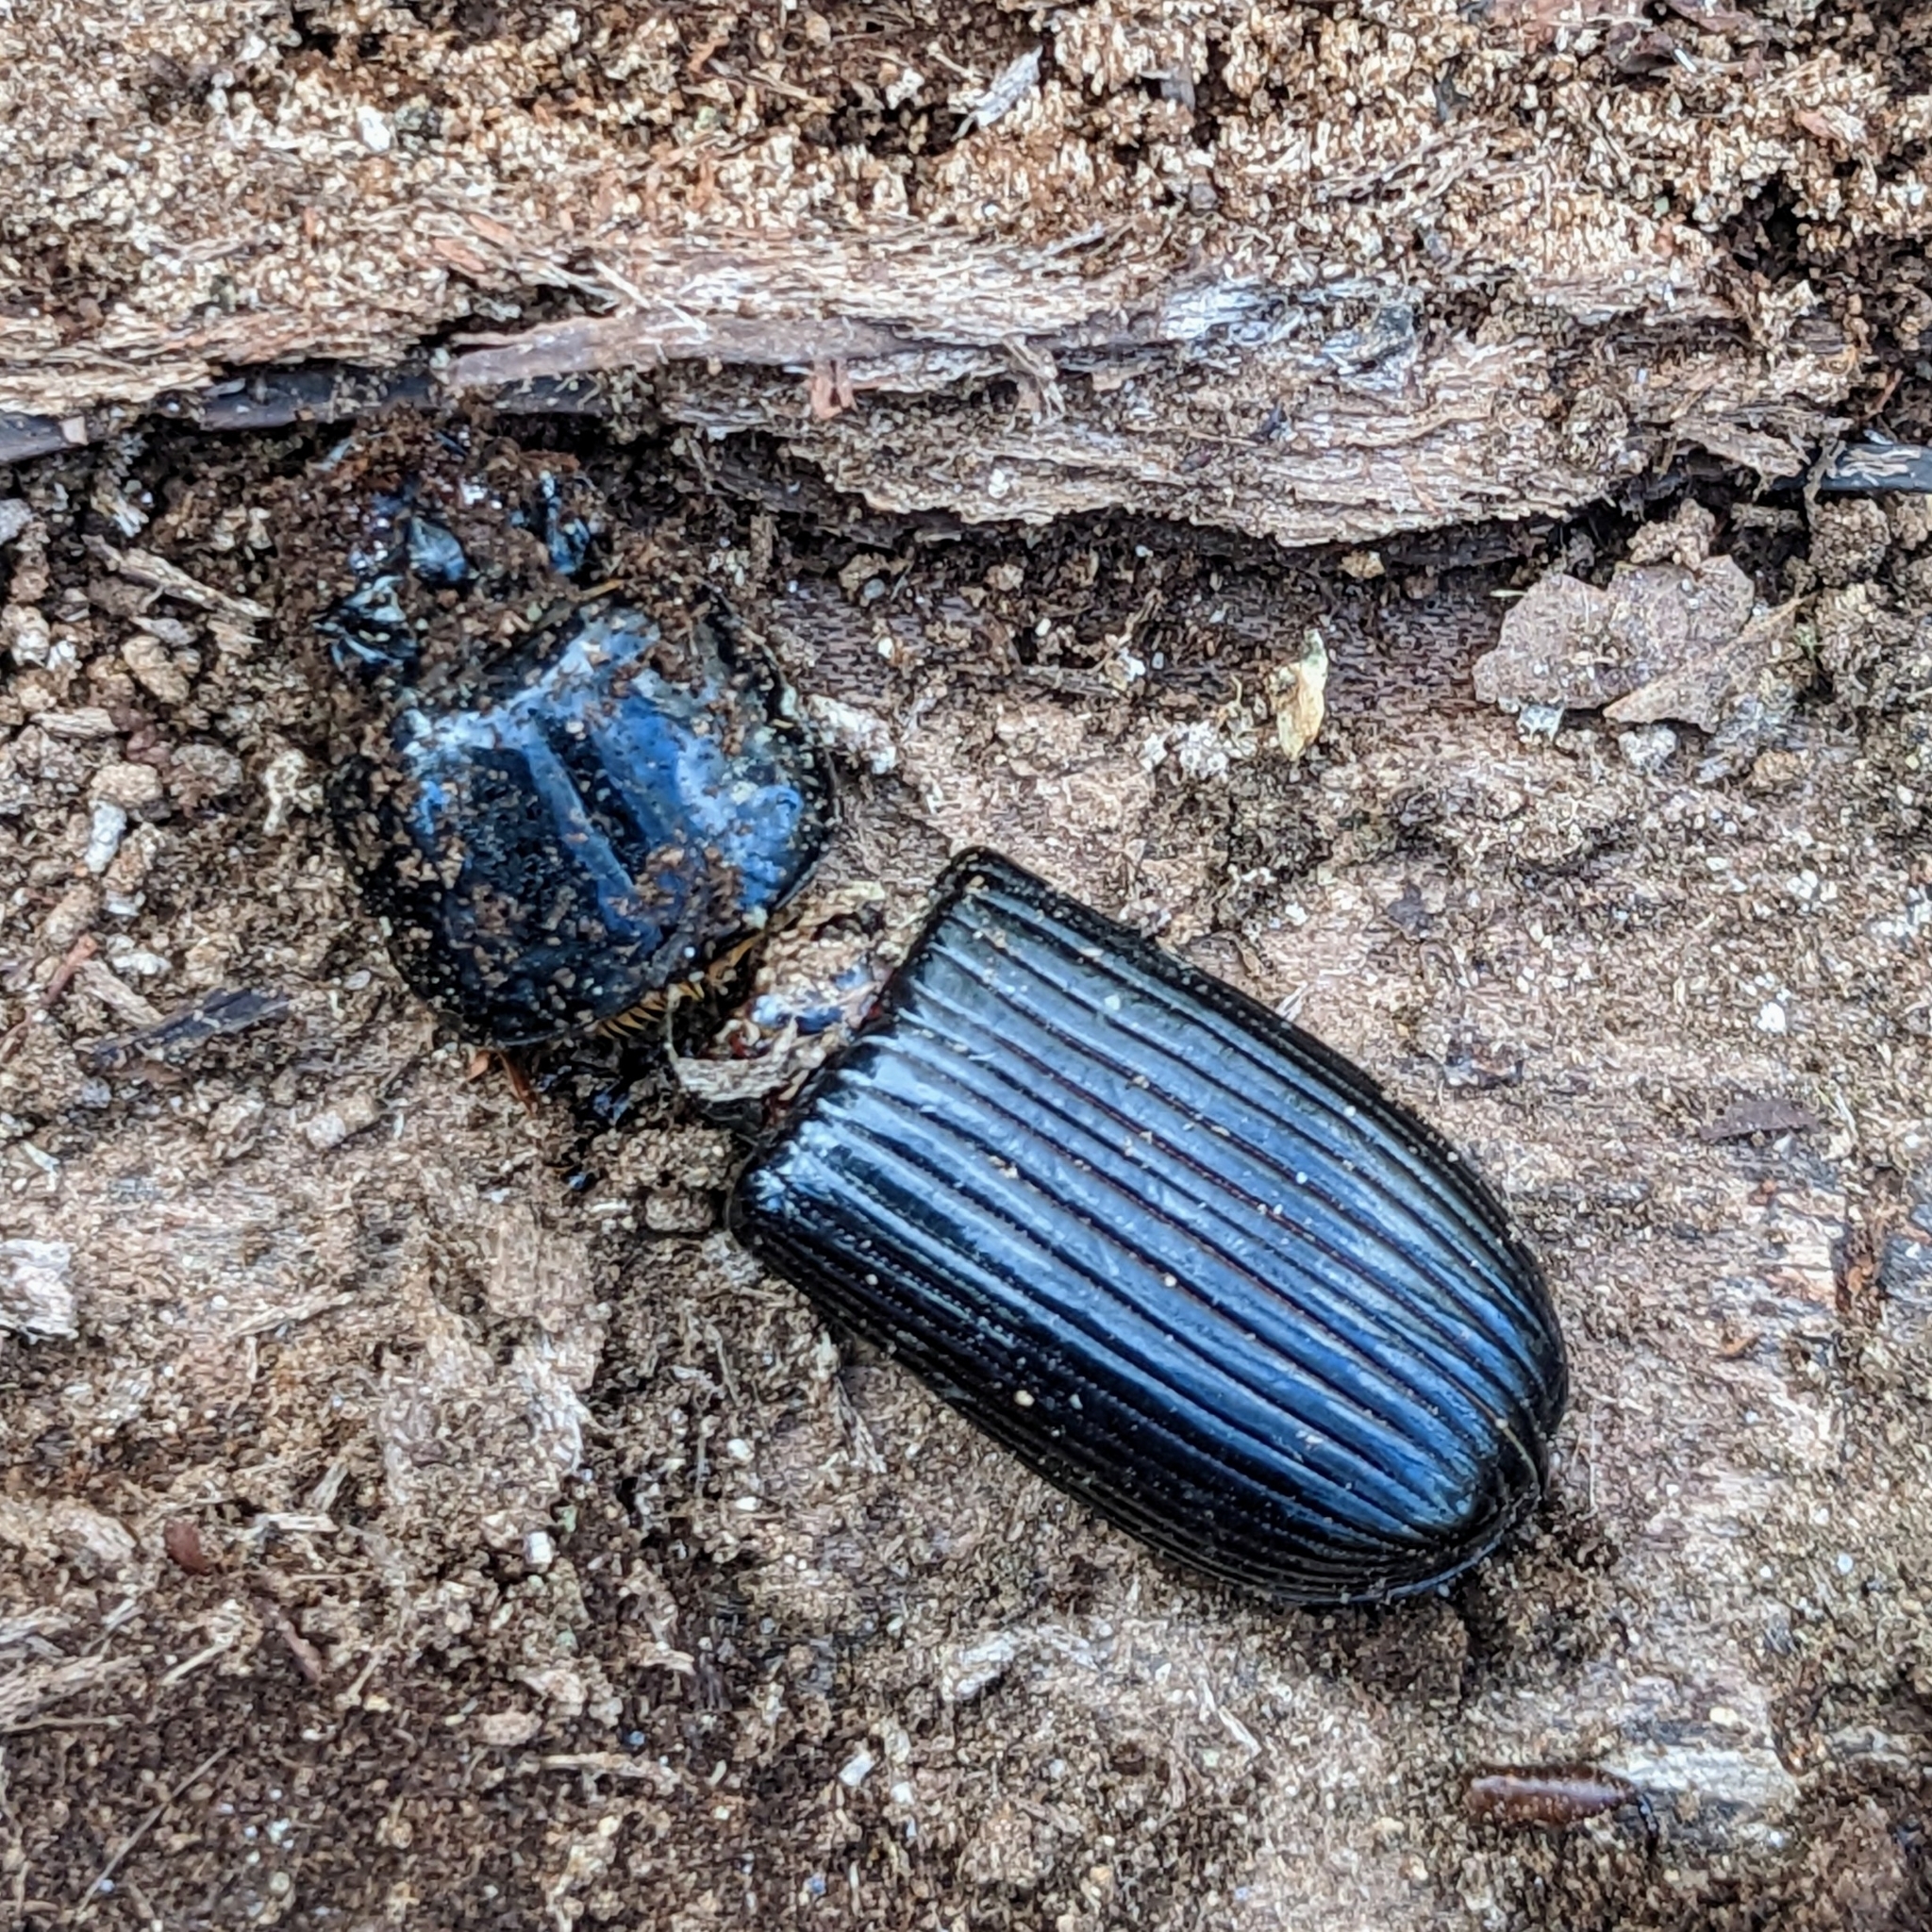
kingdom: Animalia
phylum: Arthropoda
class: Insecta
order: Coleoptera
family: Passalidae
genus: Odontotaenius
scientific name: Odontotaenius disjunctus
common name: Patent leather beetle
